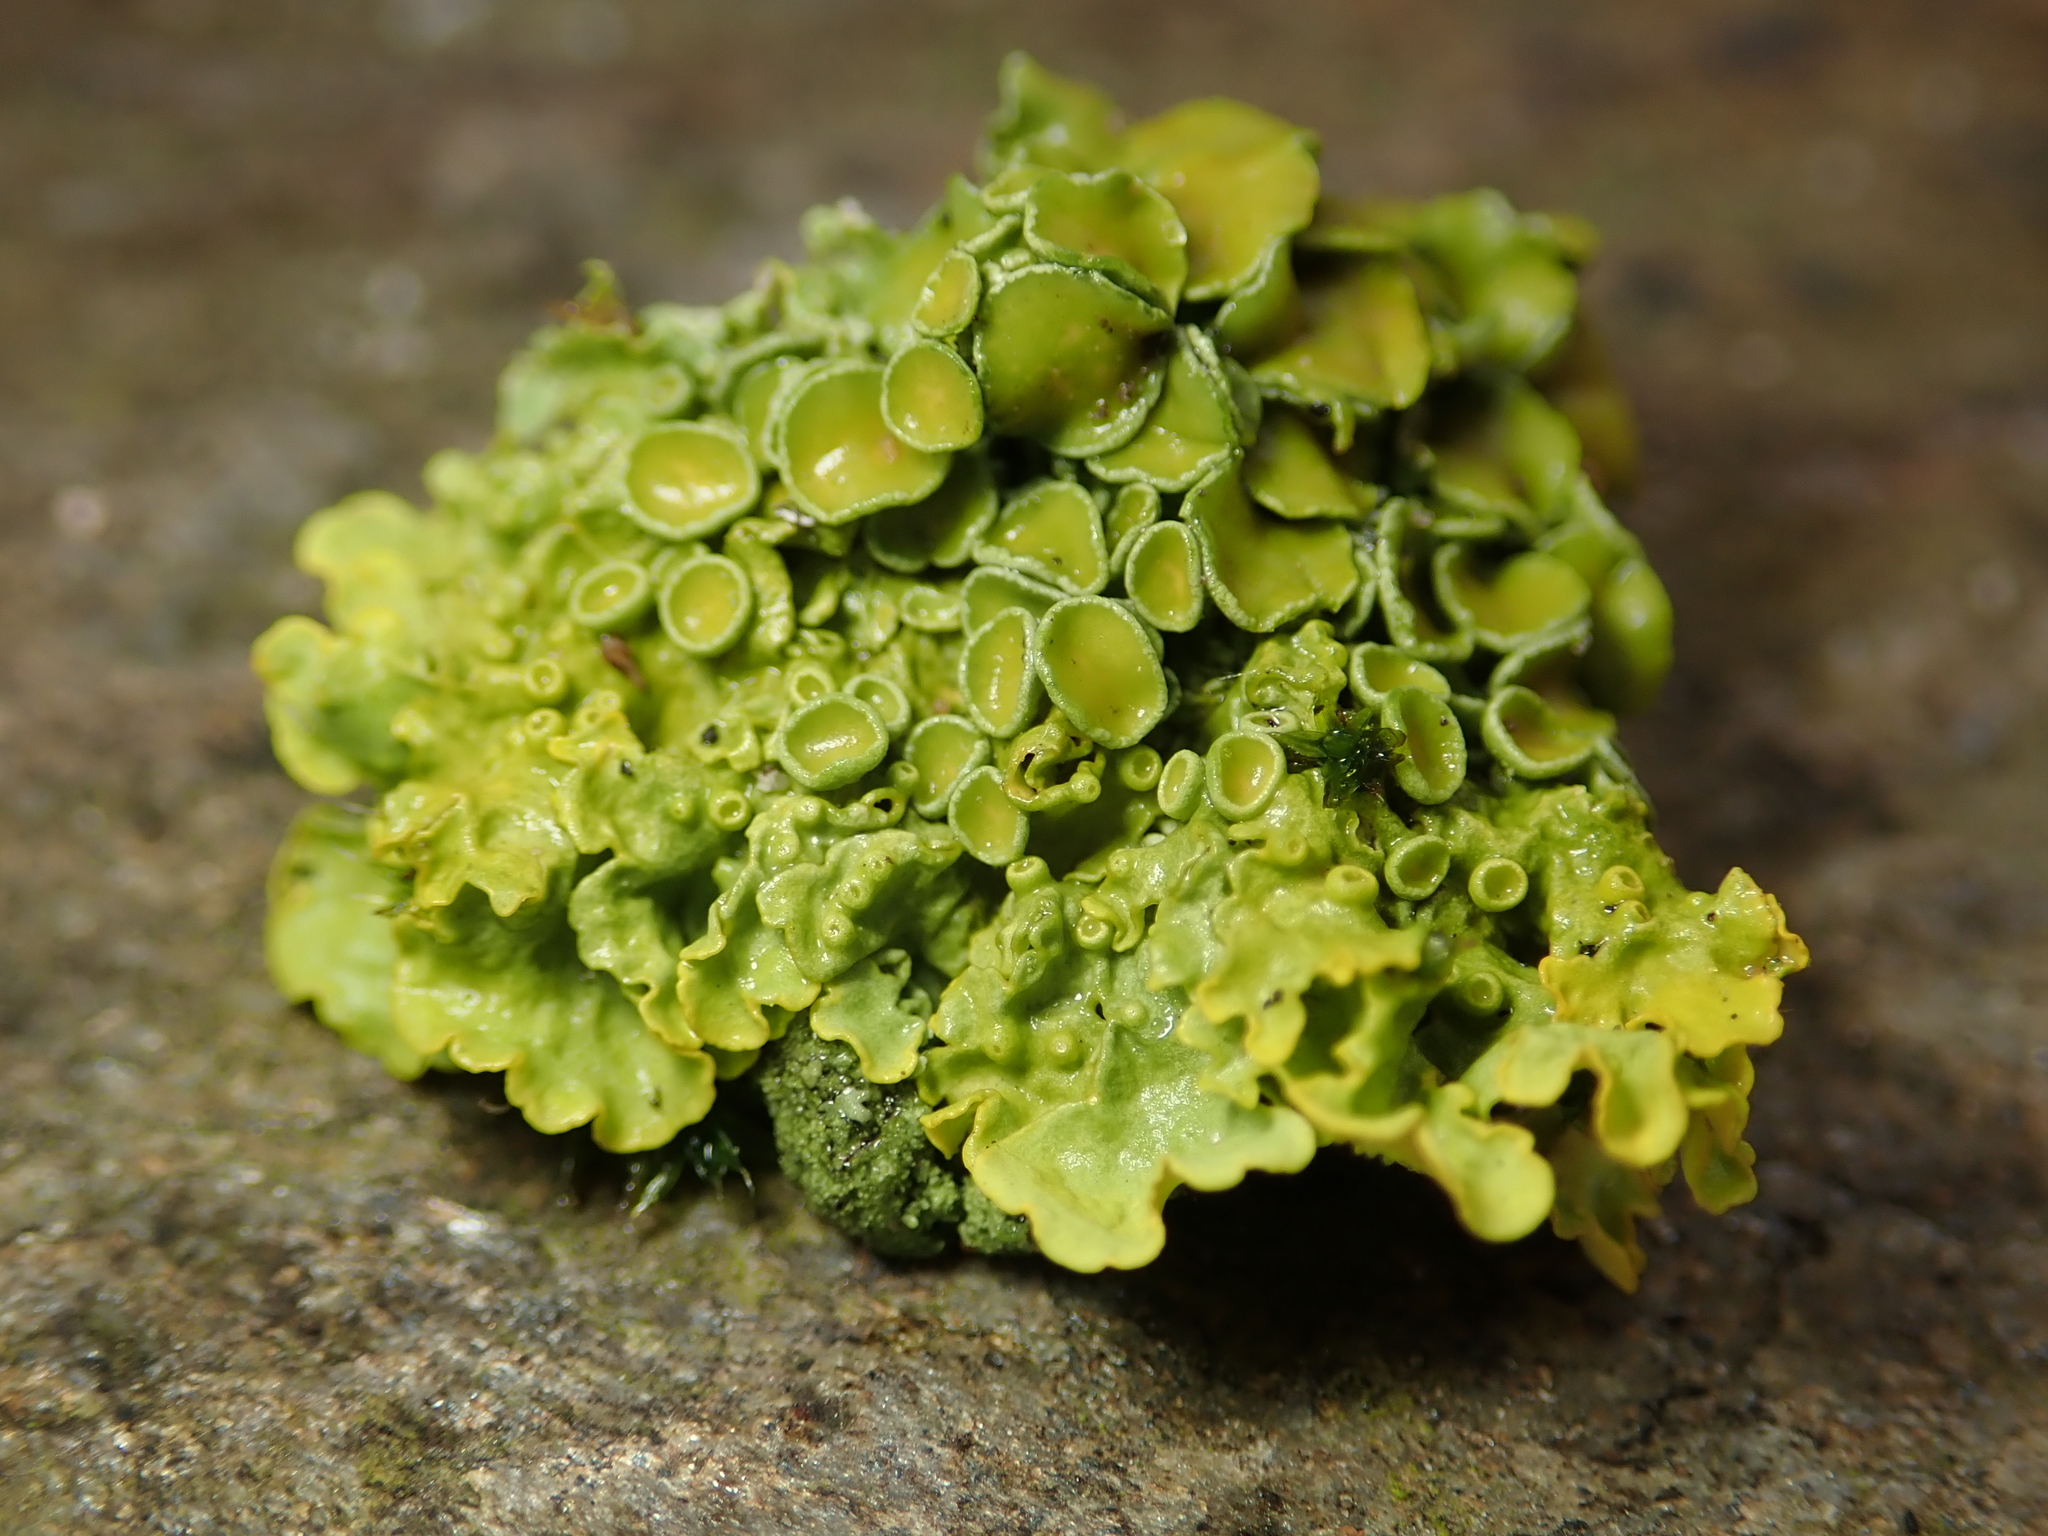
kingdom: Fungi
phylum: Ascomycota
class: Lecanoromycetes
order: Teloschistales
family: Teloschistaceae
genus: Xanthoria
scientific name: Xanthoria parietina
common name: Common orange lichen
